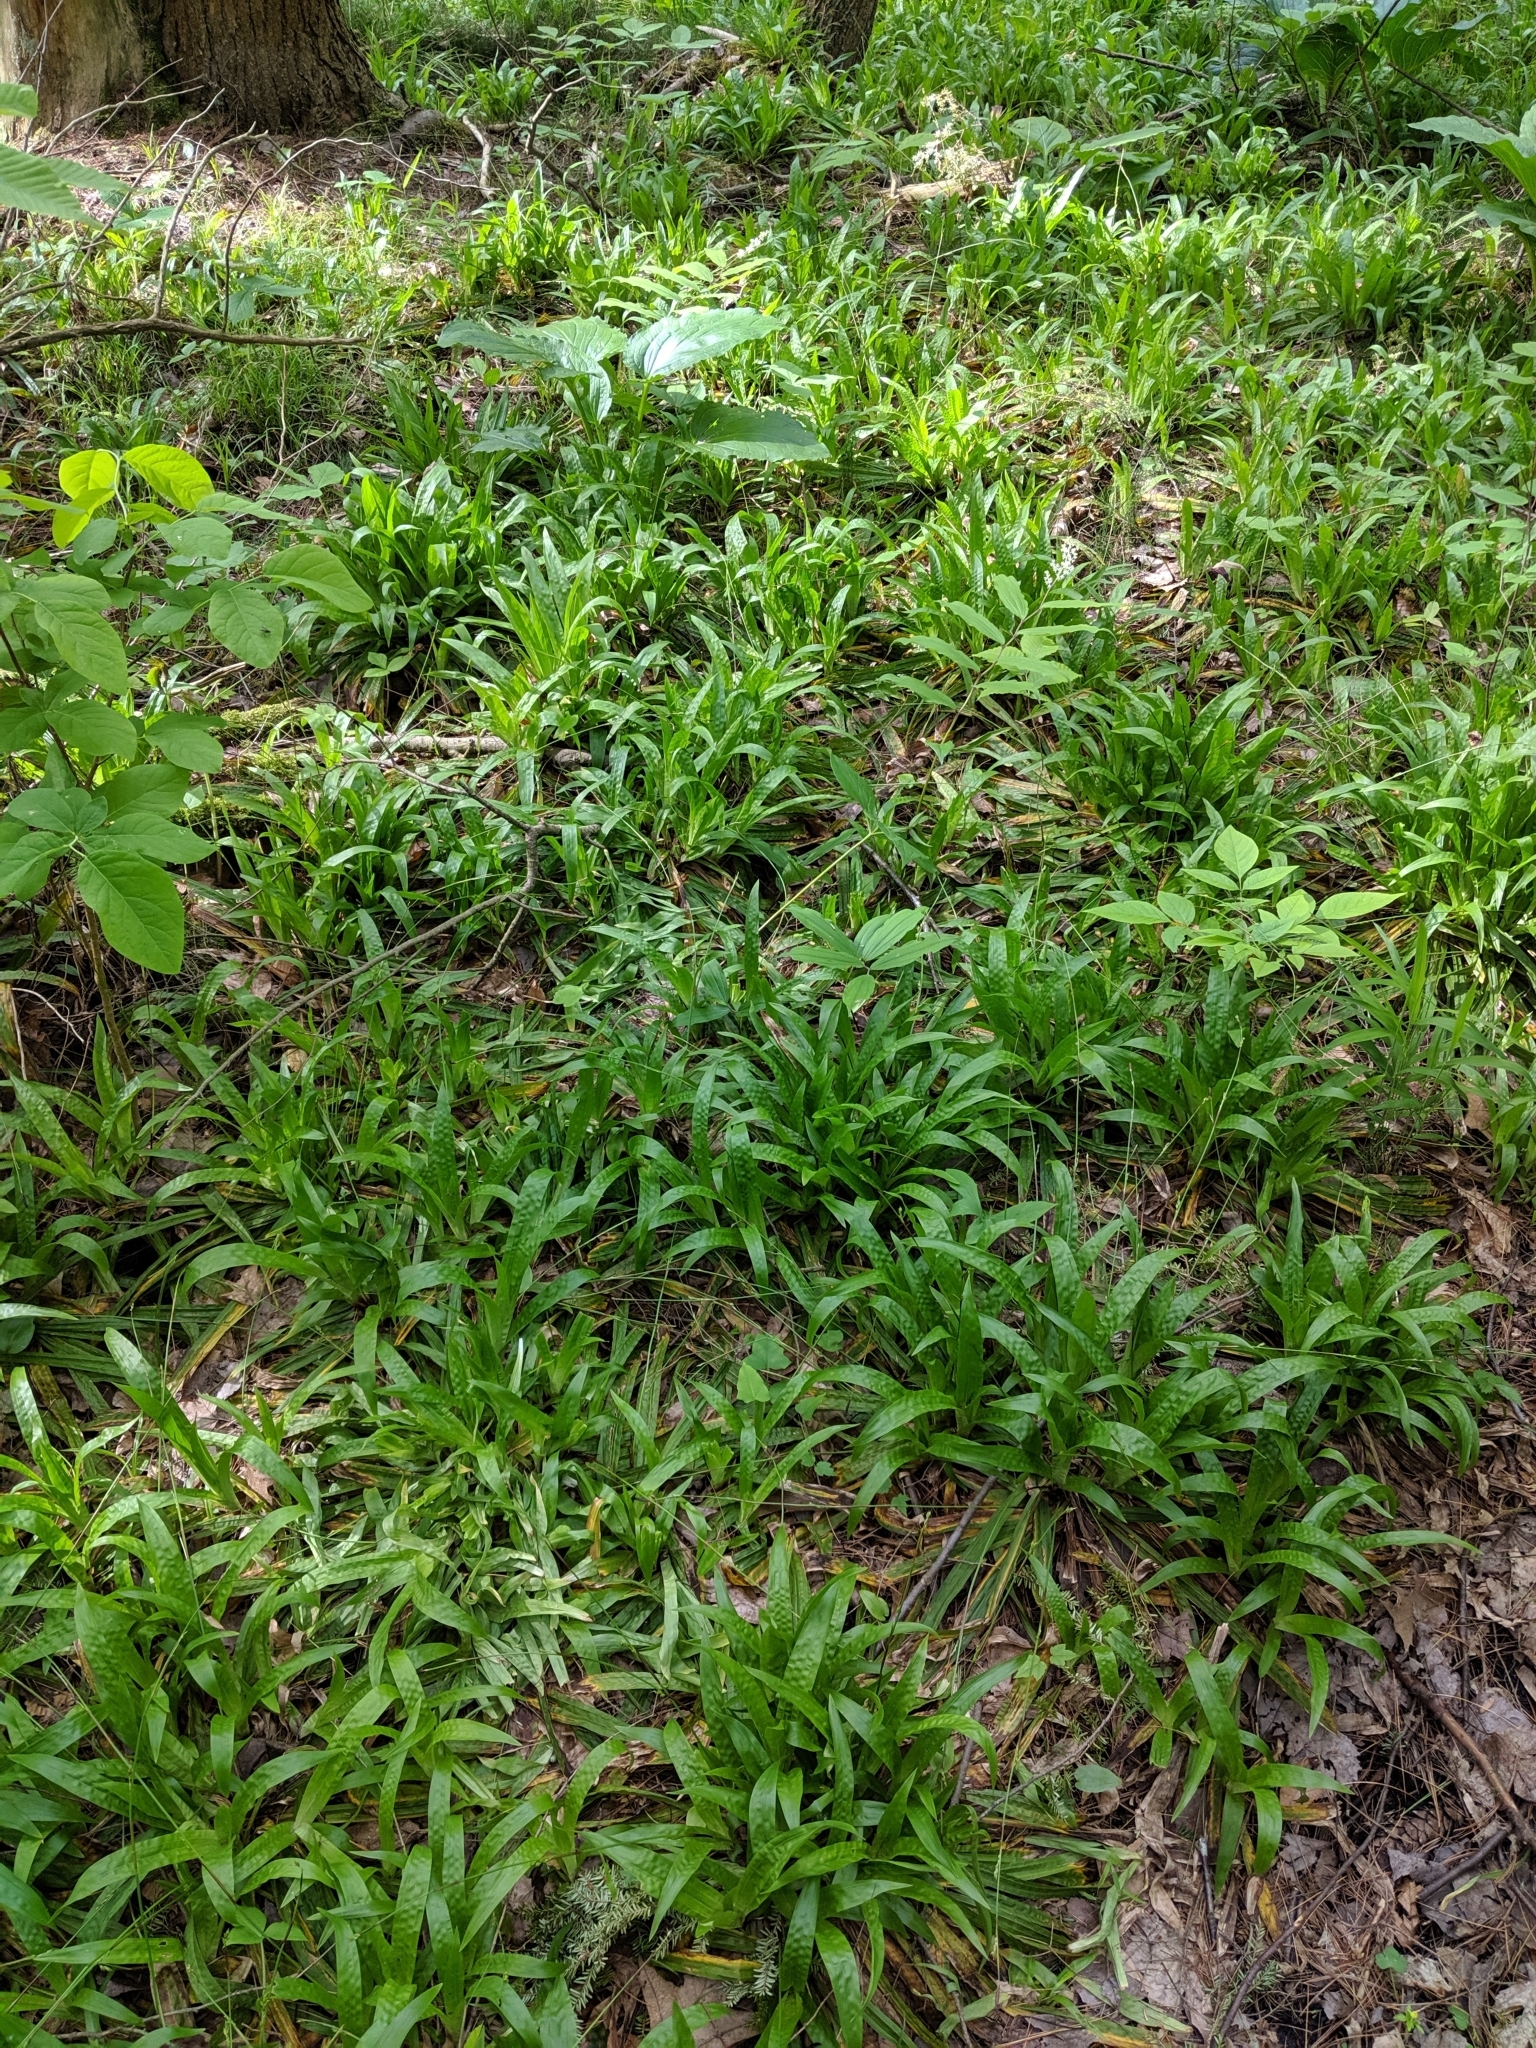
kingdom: Plantae
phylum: Tracheophyta
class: Liliopsida
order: Poales
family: Cyperaceae
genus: Carex
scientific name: Carex plantaginea
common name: Plantain-leaved sedge
